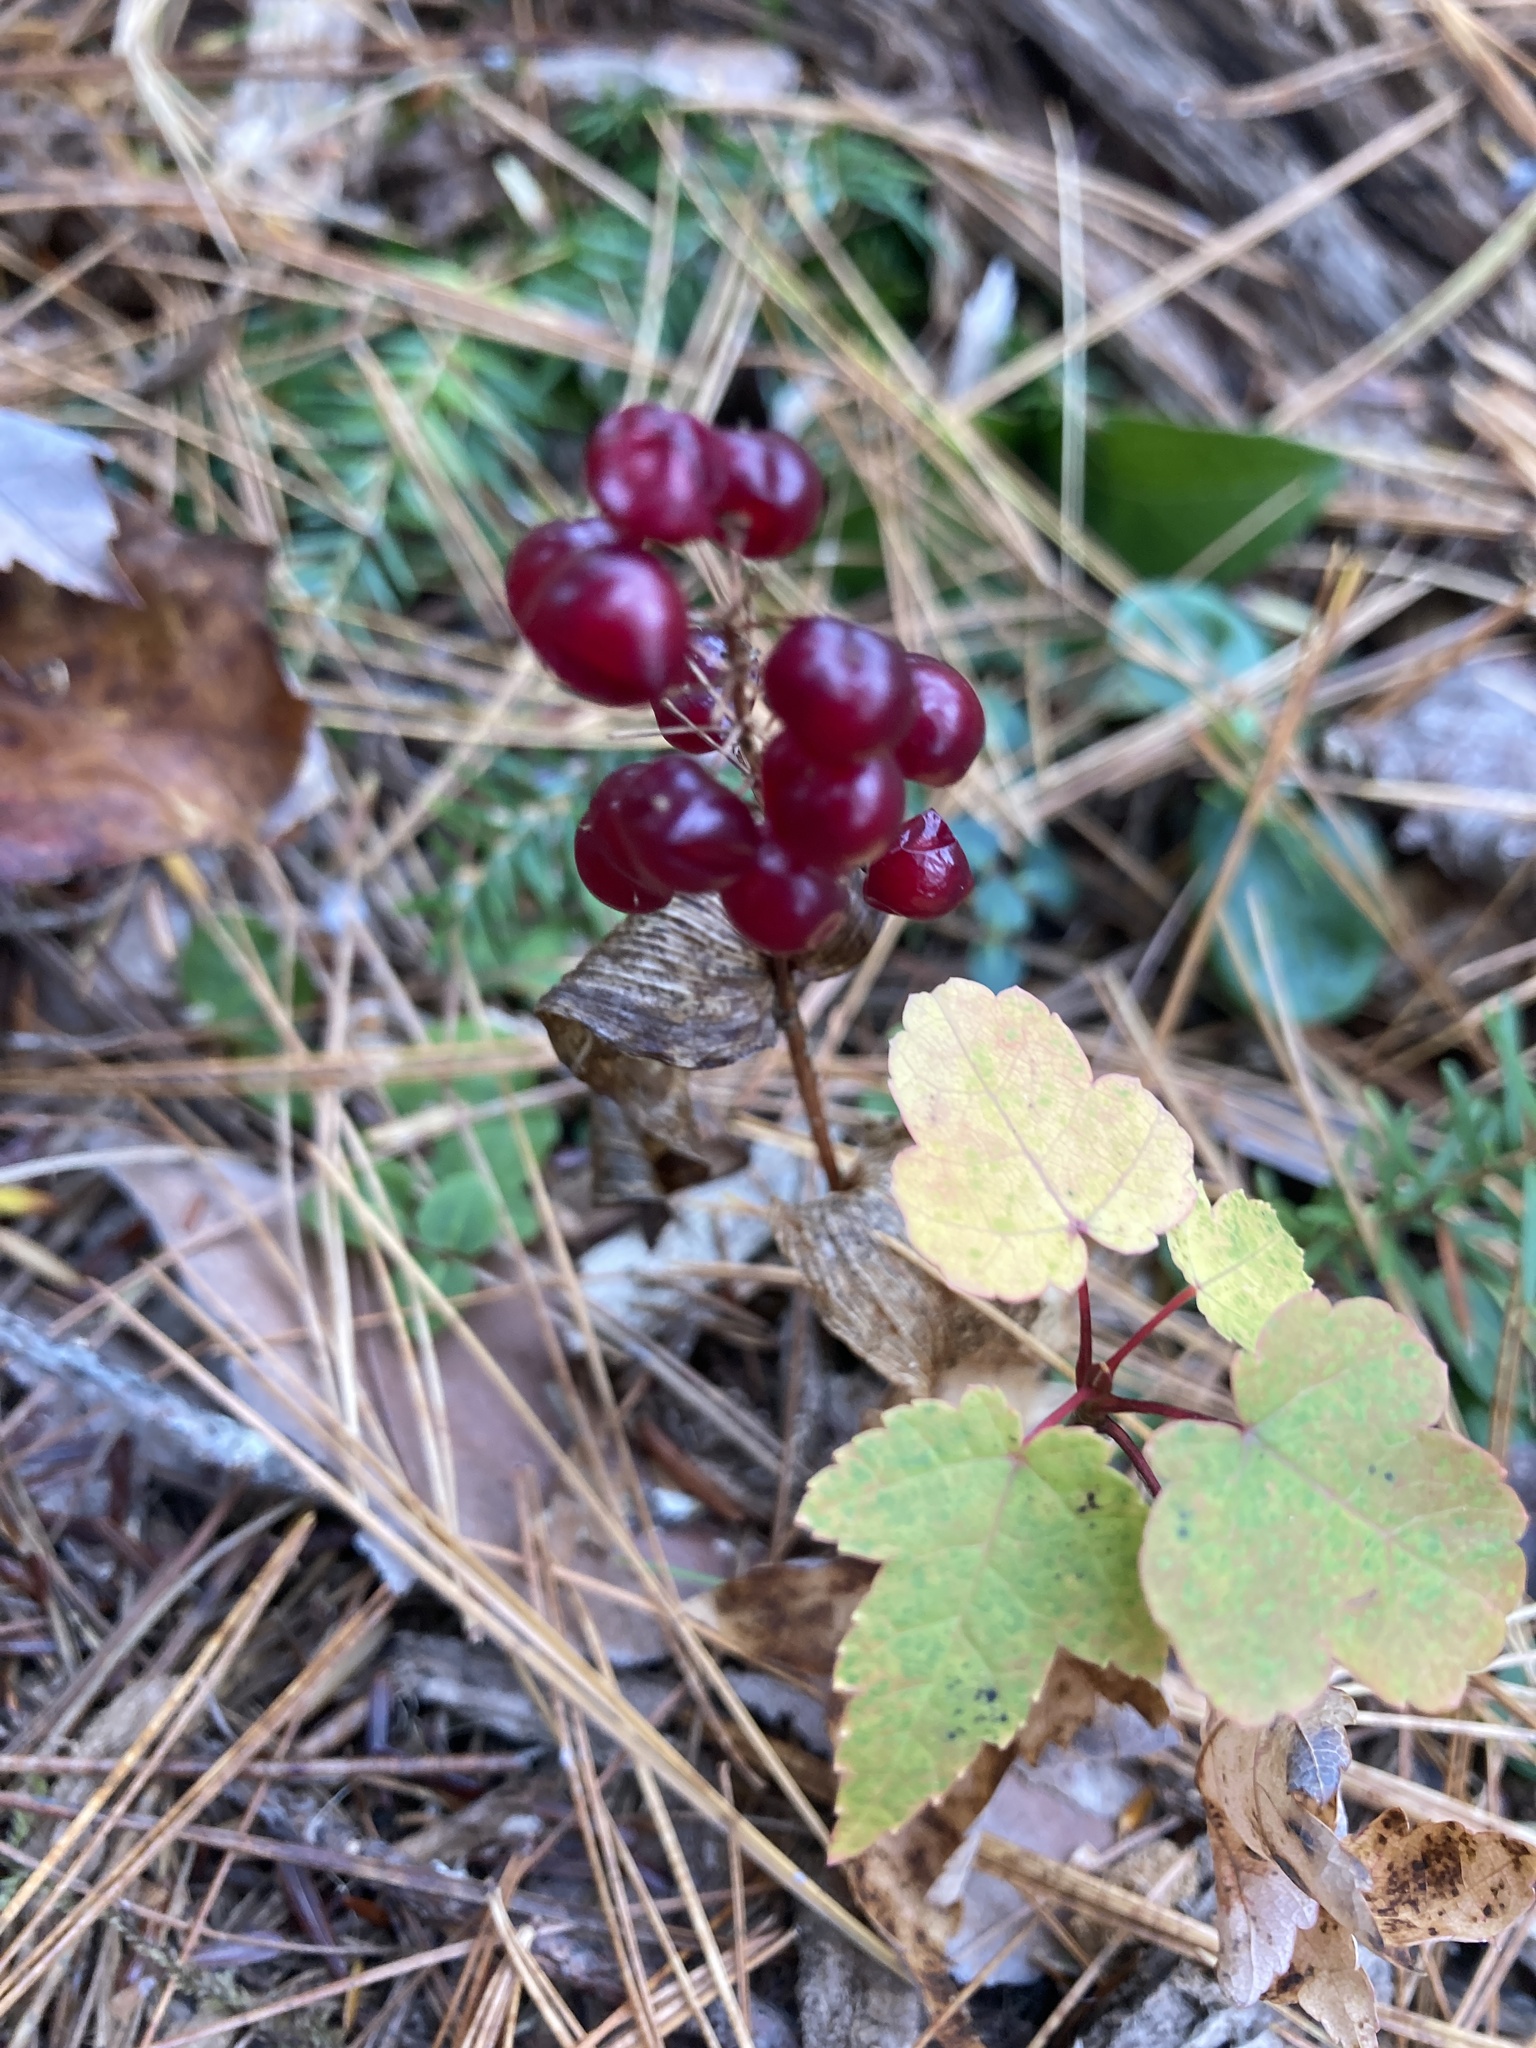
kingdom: Plantae
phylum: Tracheophyta
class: Liliopsida
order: Asparagales
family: Asparagaceae
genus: Maianthemum
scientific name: Maianthemum canadense
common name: False lily-of-the-valley
